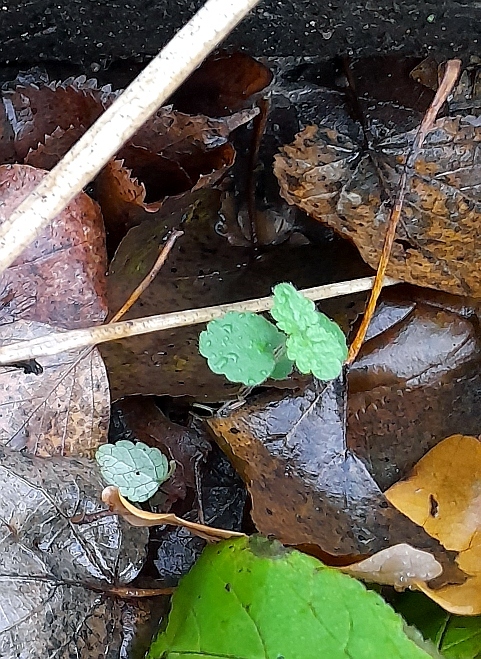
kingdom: Plantae
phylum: Tracheophyta
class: Magnoliopsida
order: Lamiales
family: Lamiaceae
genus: Lamium
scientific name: Lamium galeobdolon
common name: Yellow archangel
